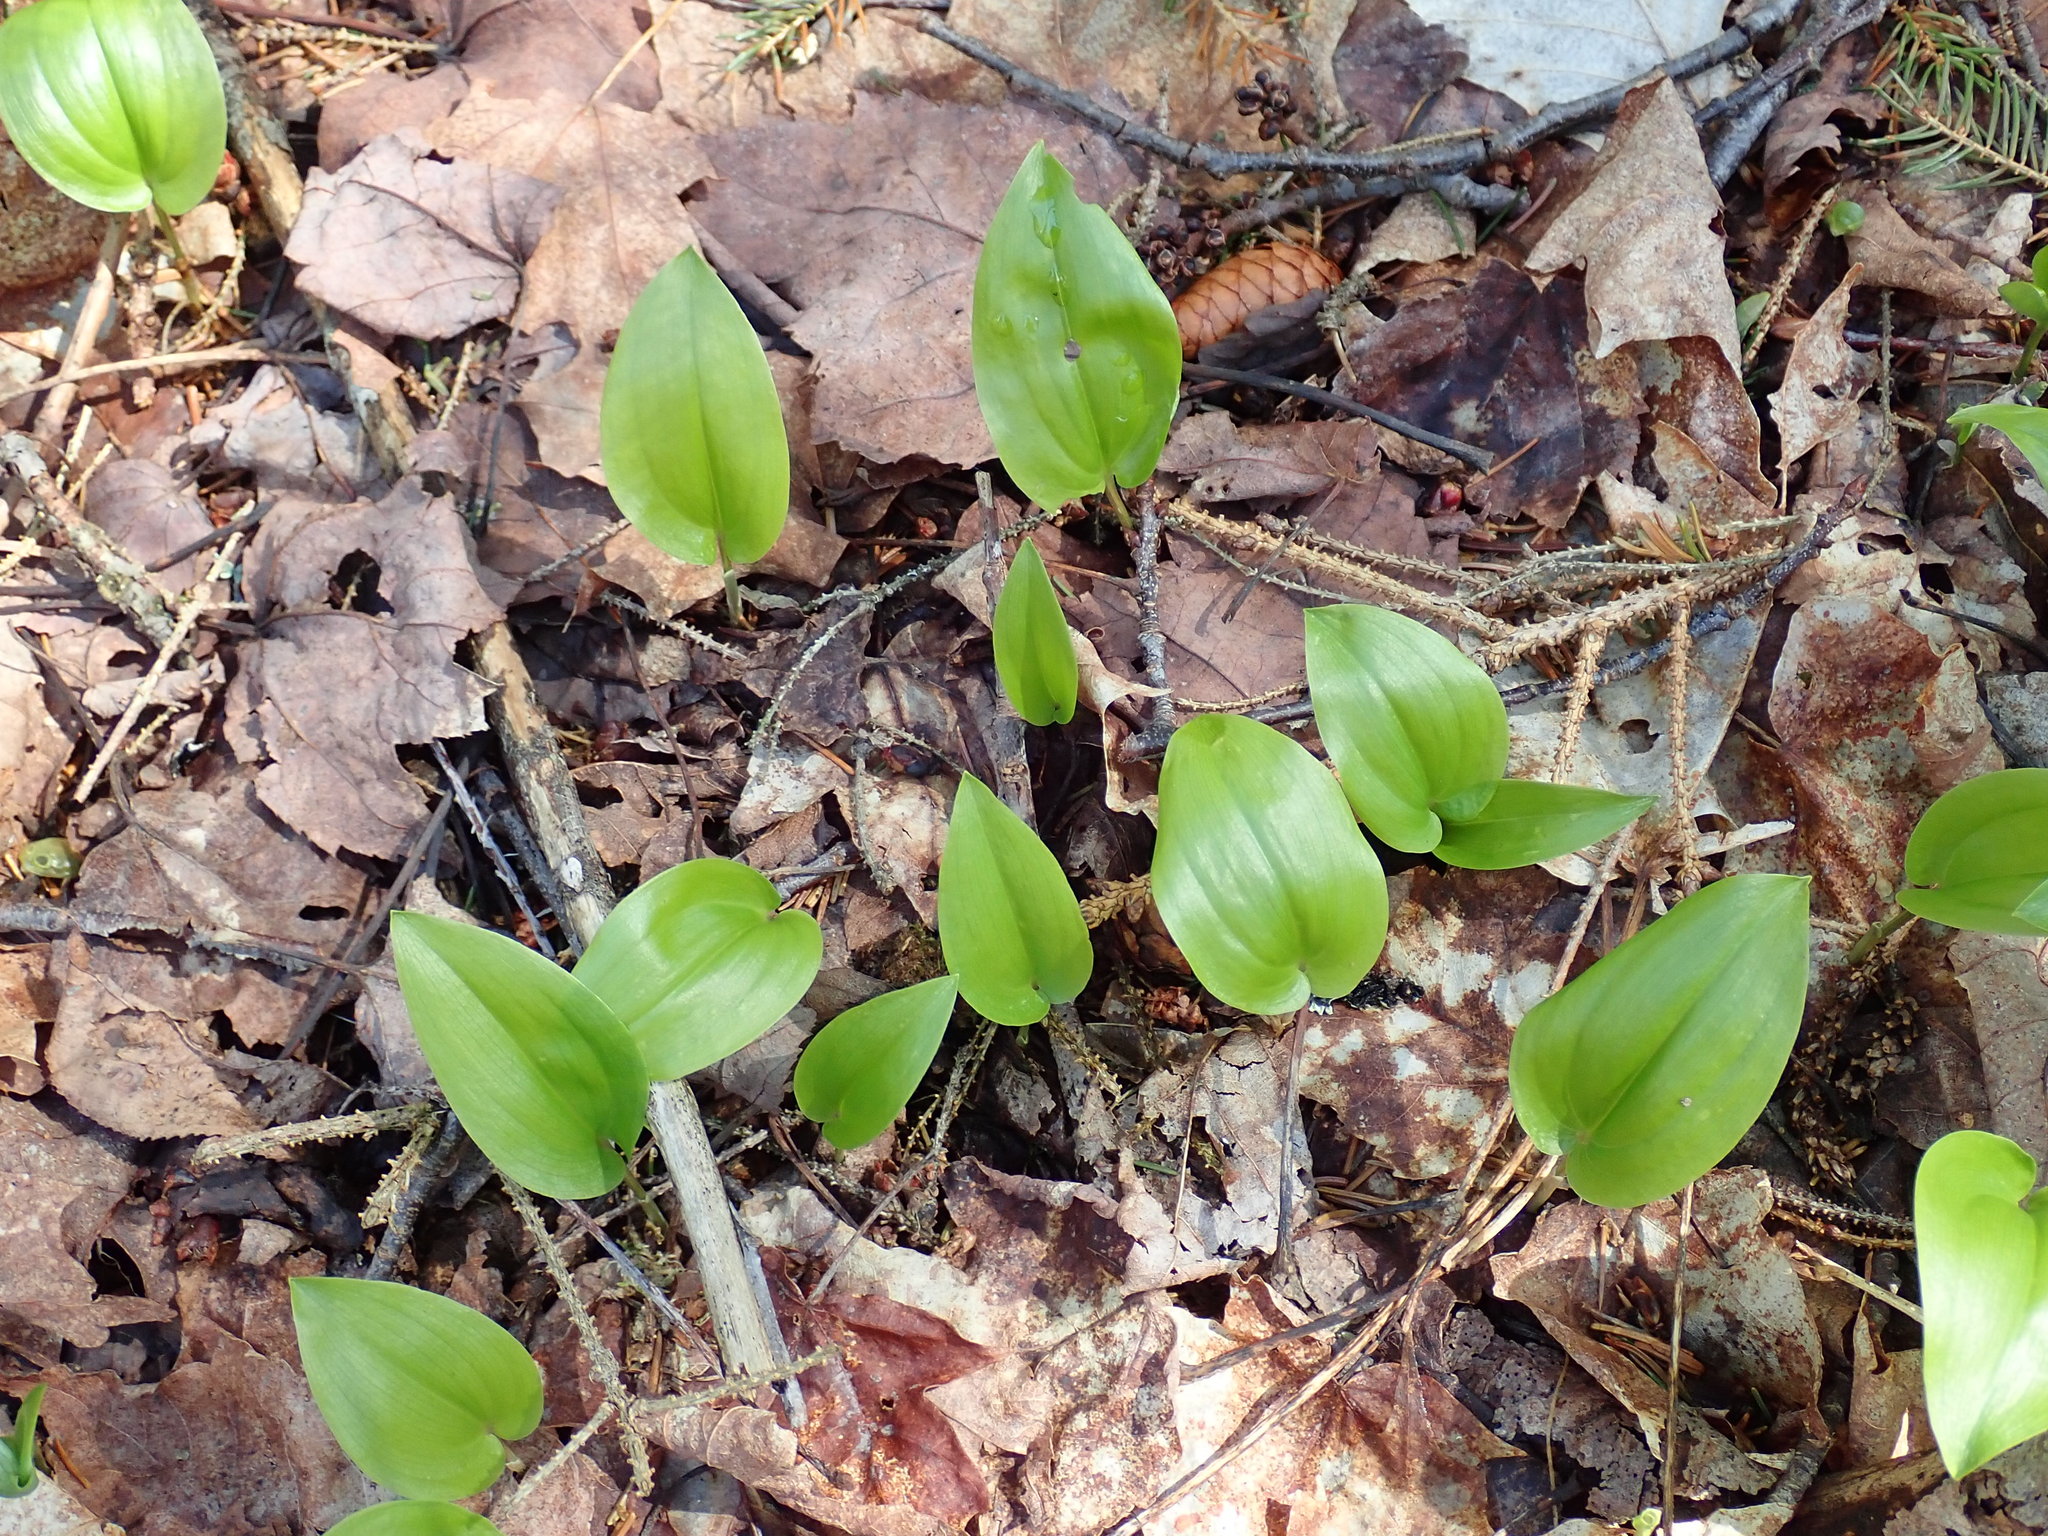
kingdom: Plantae
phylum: Tracheophyta
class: Liliopsida
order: Asparagales
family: Asparagaceae
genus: Maianthemum
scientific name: Maianthemum canadense
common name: False lily-of-the-valley
